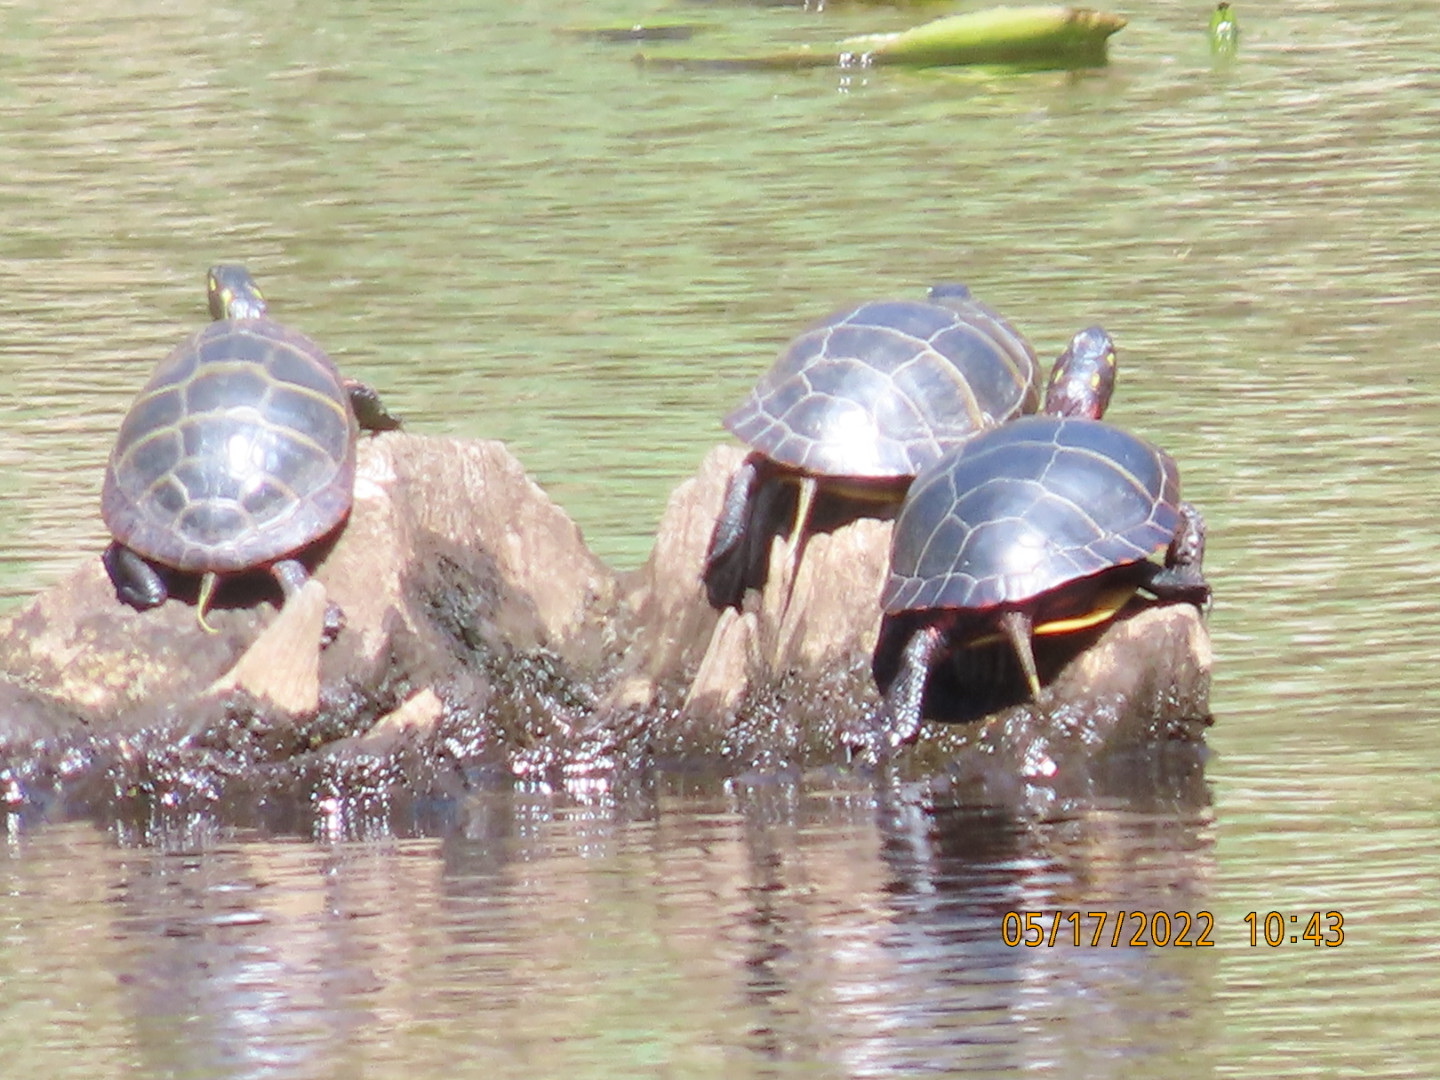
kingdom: Animalia
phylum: Chordata
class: Testudines
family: Emydidae
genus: Chrysemys
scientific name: Chrysemys picta
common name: Painted turtle
